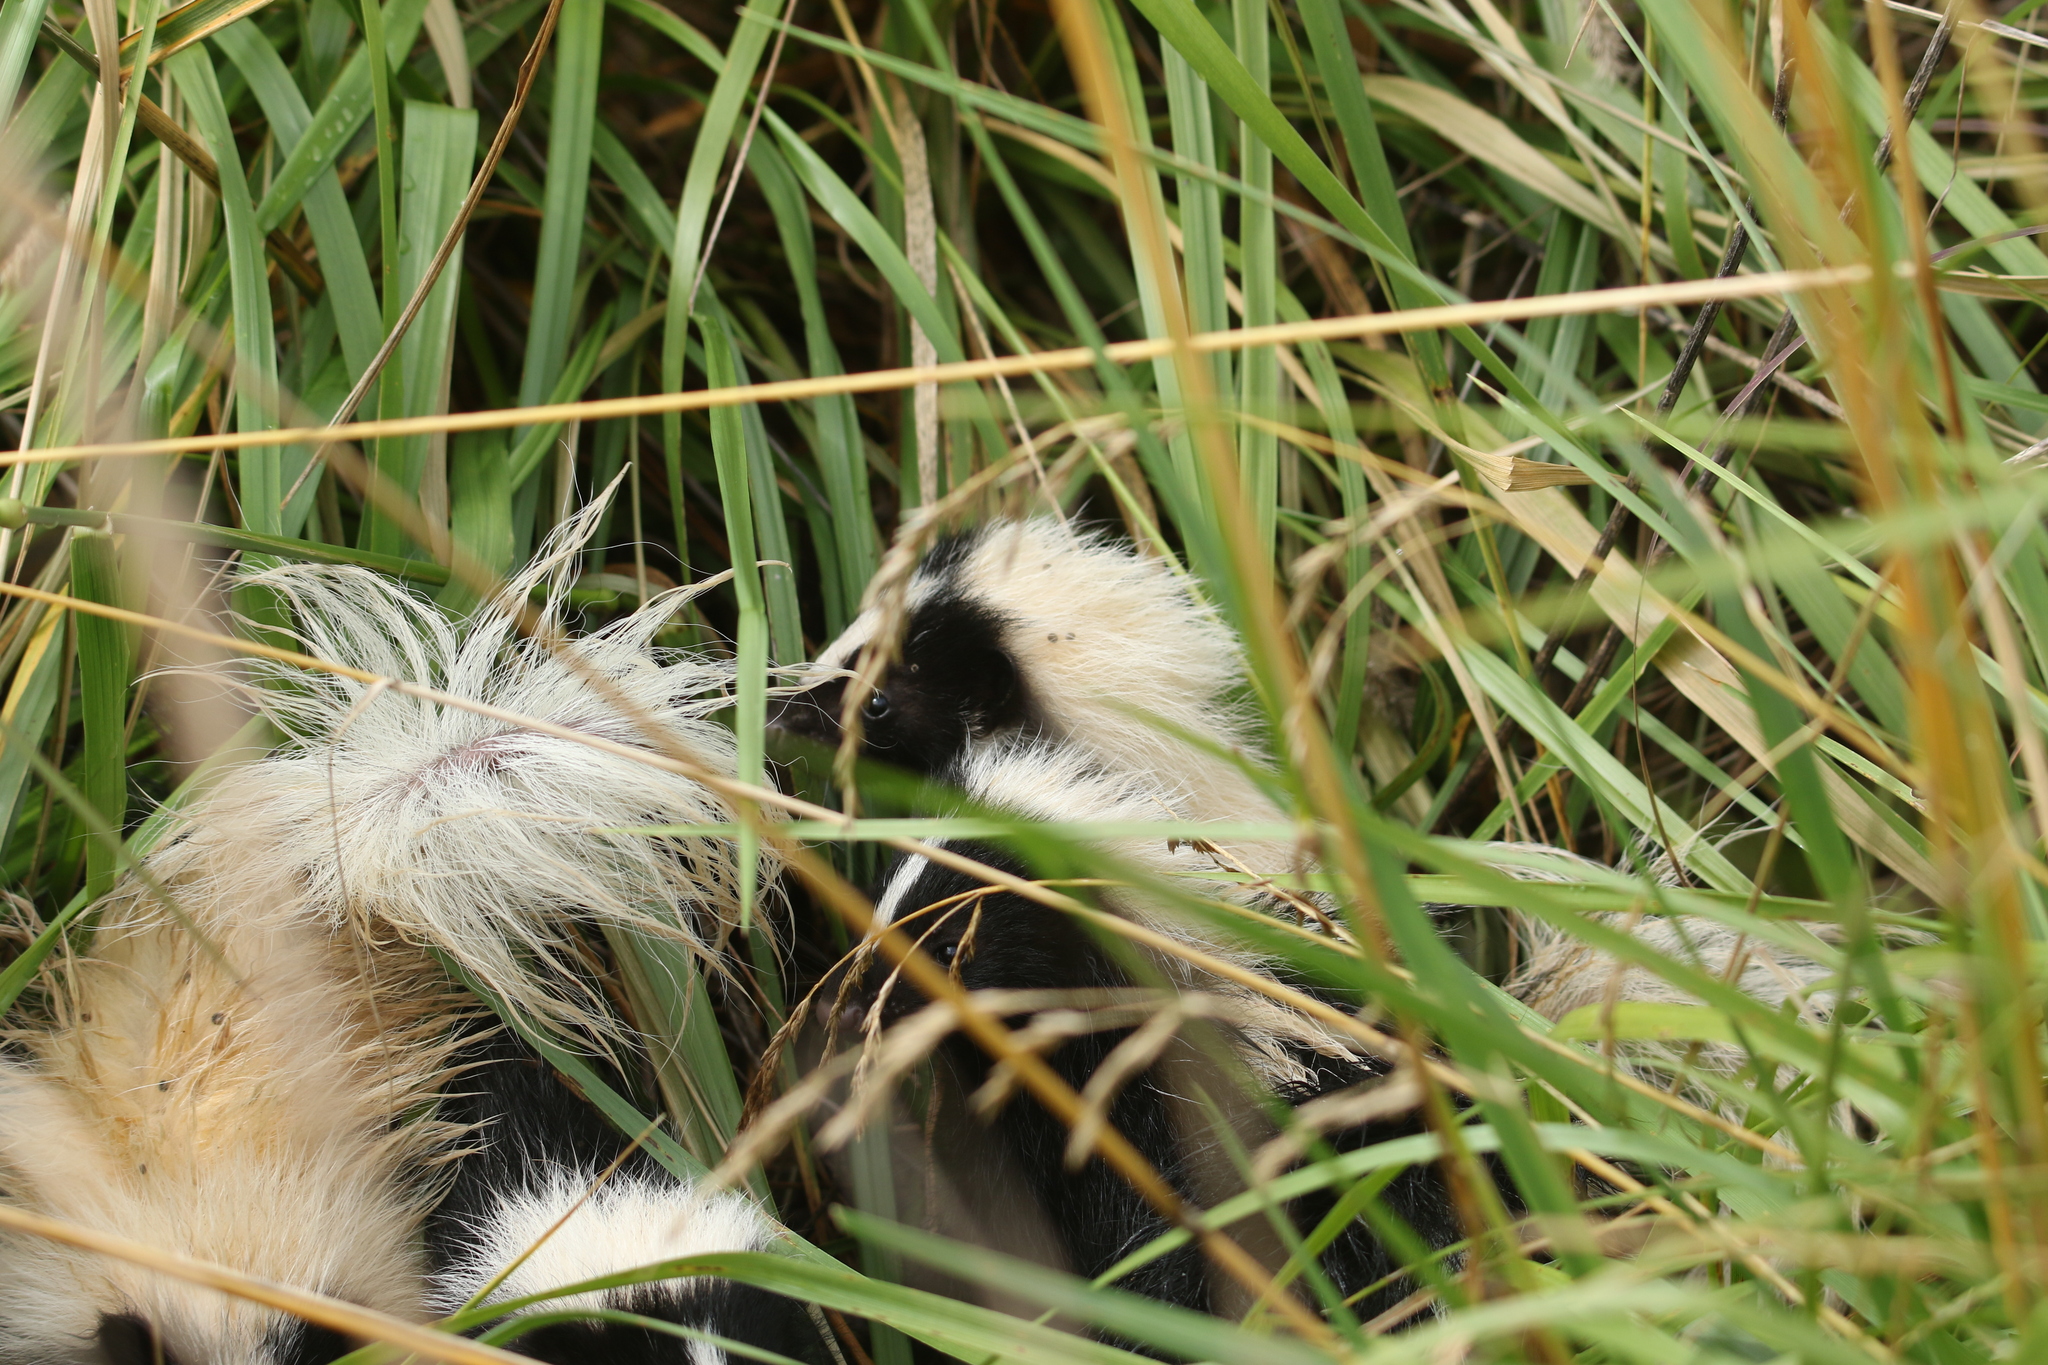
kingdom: Animalia
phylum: Chordata
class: Mammalia
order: Carnivora
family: Mephitidae
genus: Mephitis
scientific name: Mephitis mephitis
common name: Striped skunk
